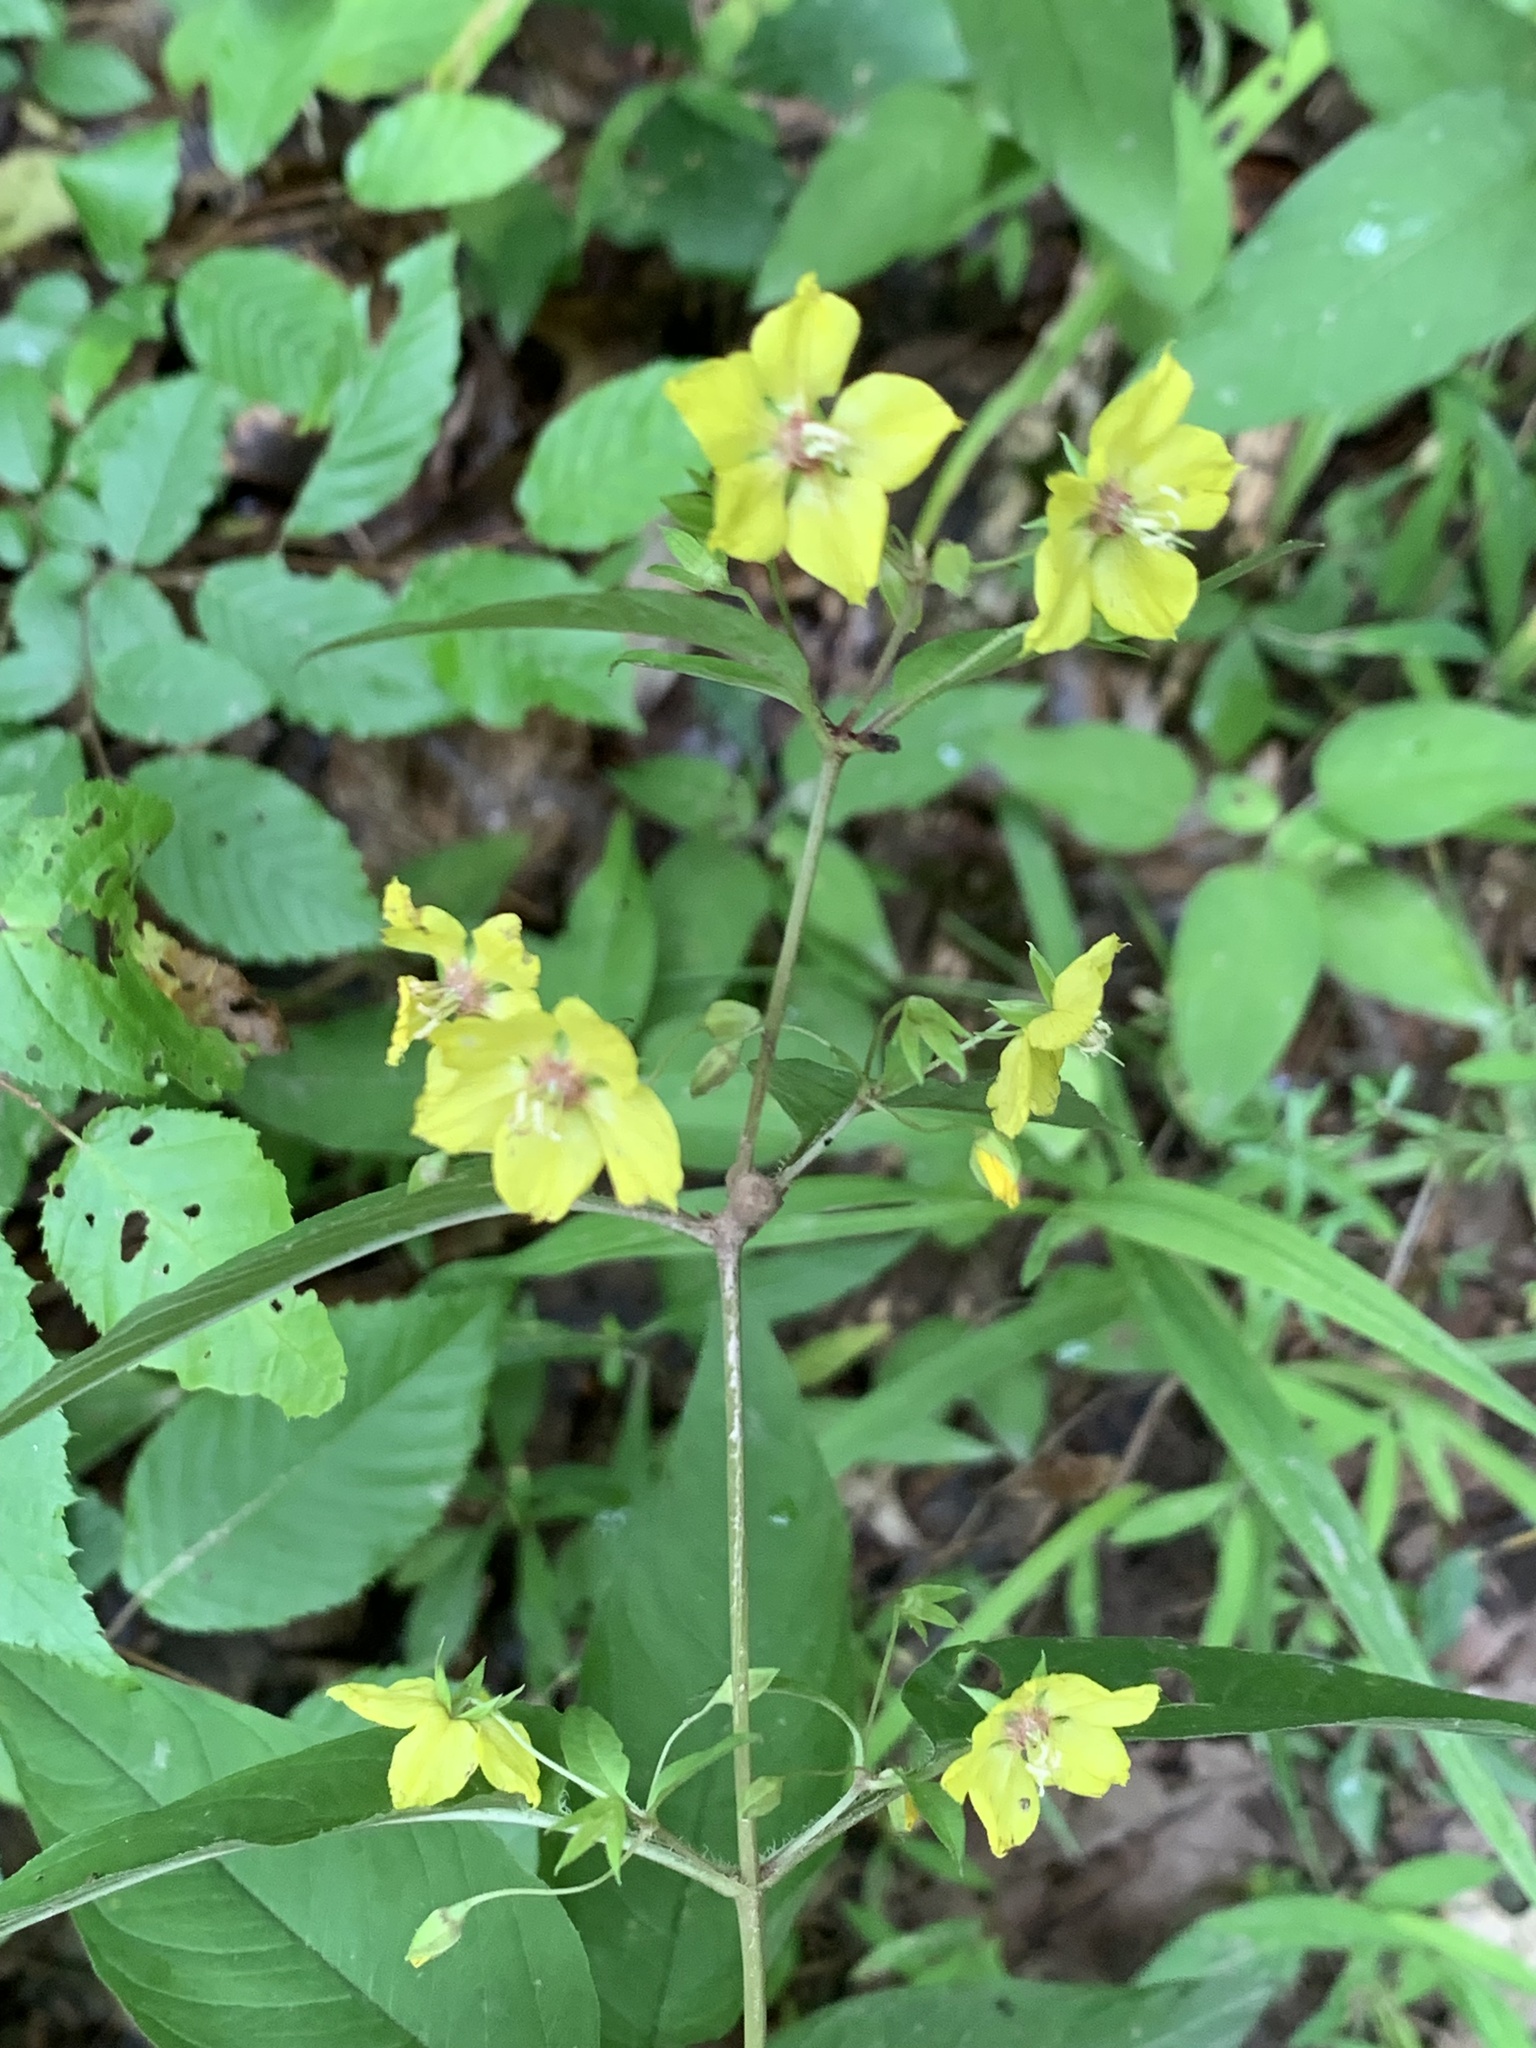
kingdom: Plantae
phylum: Tracheophyta
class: Magnoliopsida
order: Ericales
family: Primulaceae
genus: Lysimachia
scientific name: Lysimachia ciliata
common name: Fringed loosestrife
